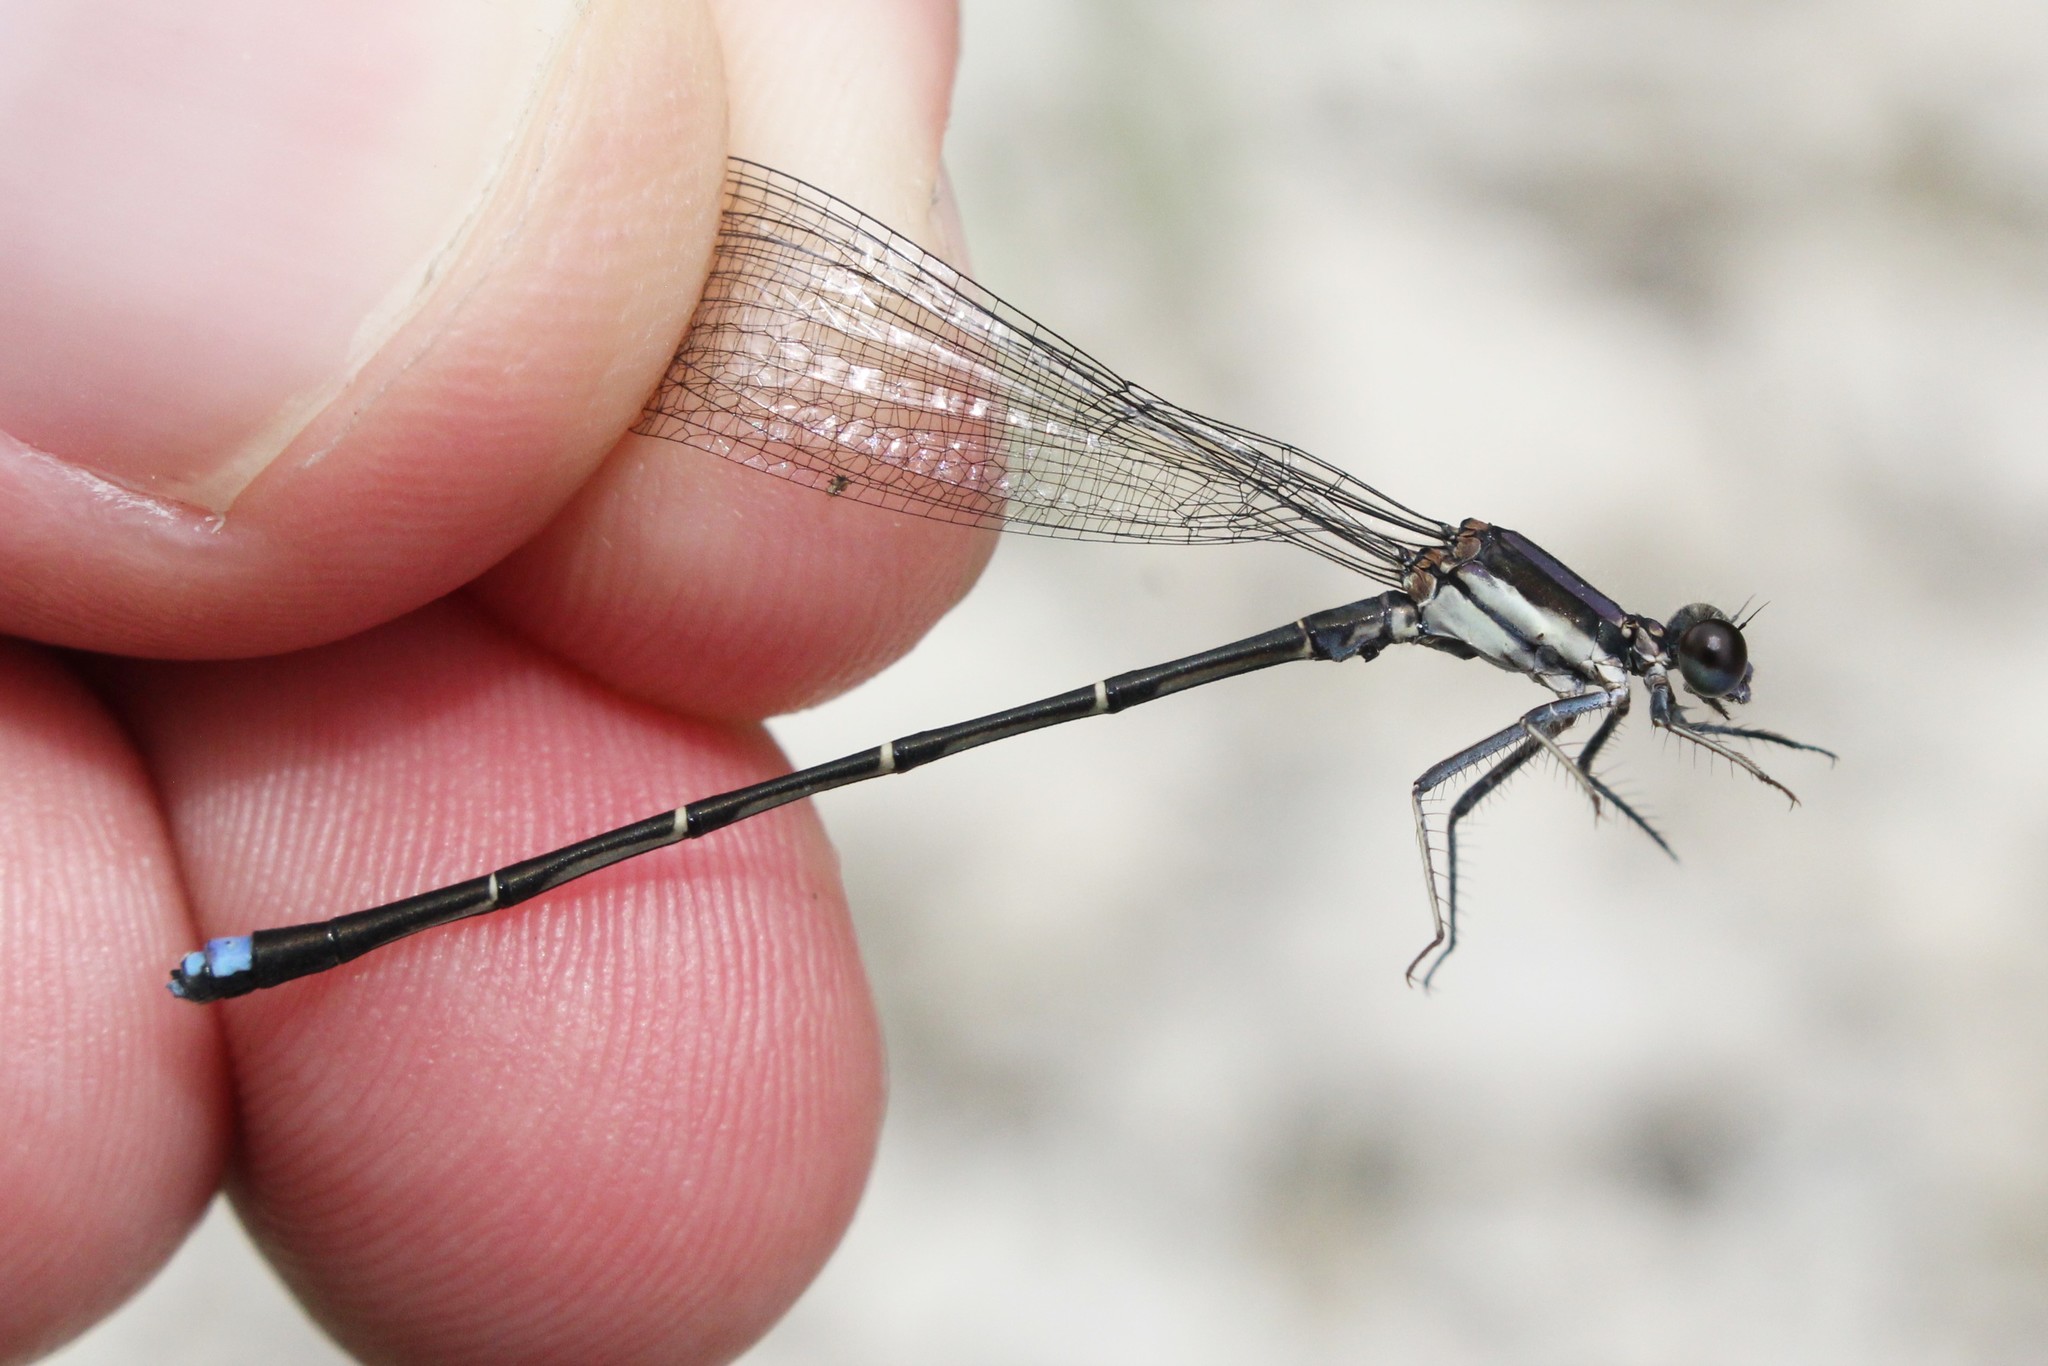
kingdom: Animalia
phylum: Arthropoda
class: Insecta
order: Odonata
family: Coenagrionidae
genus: Argia
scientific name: Argia tibialis
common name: Blue-tipped dancer
